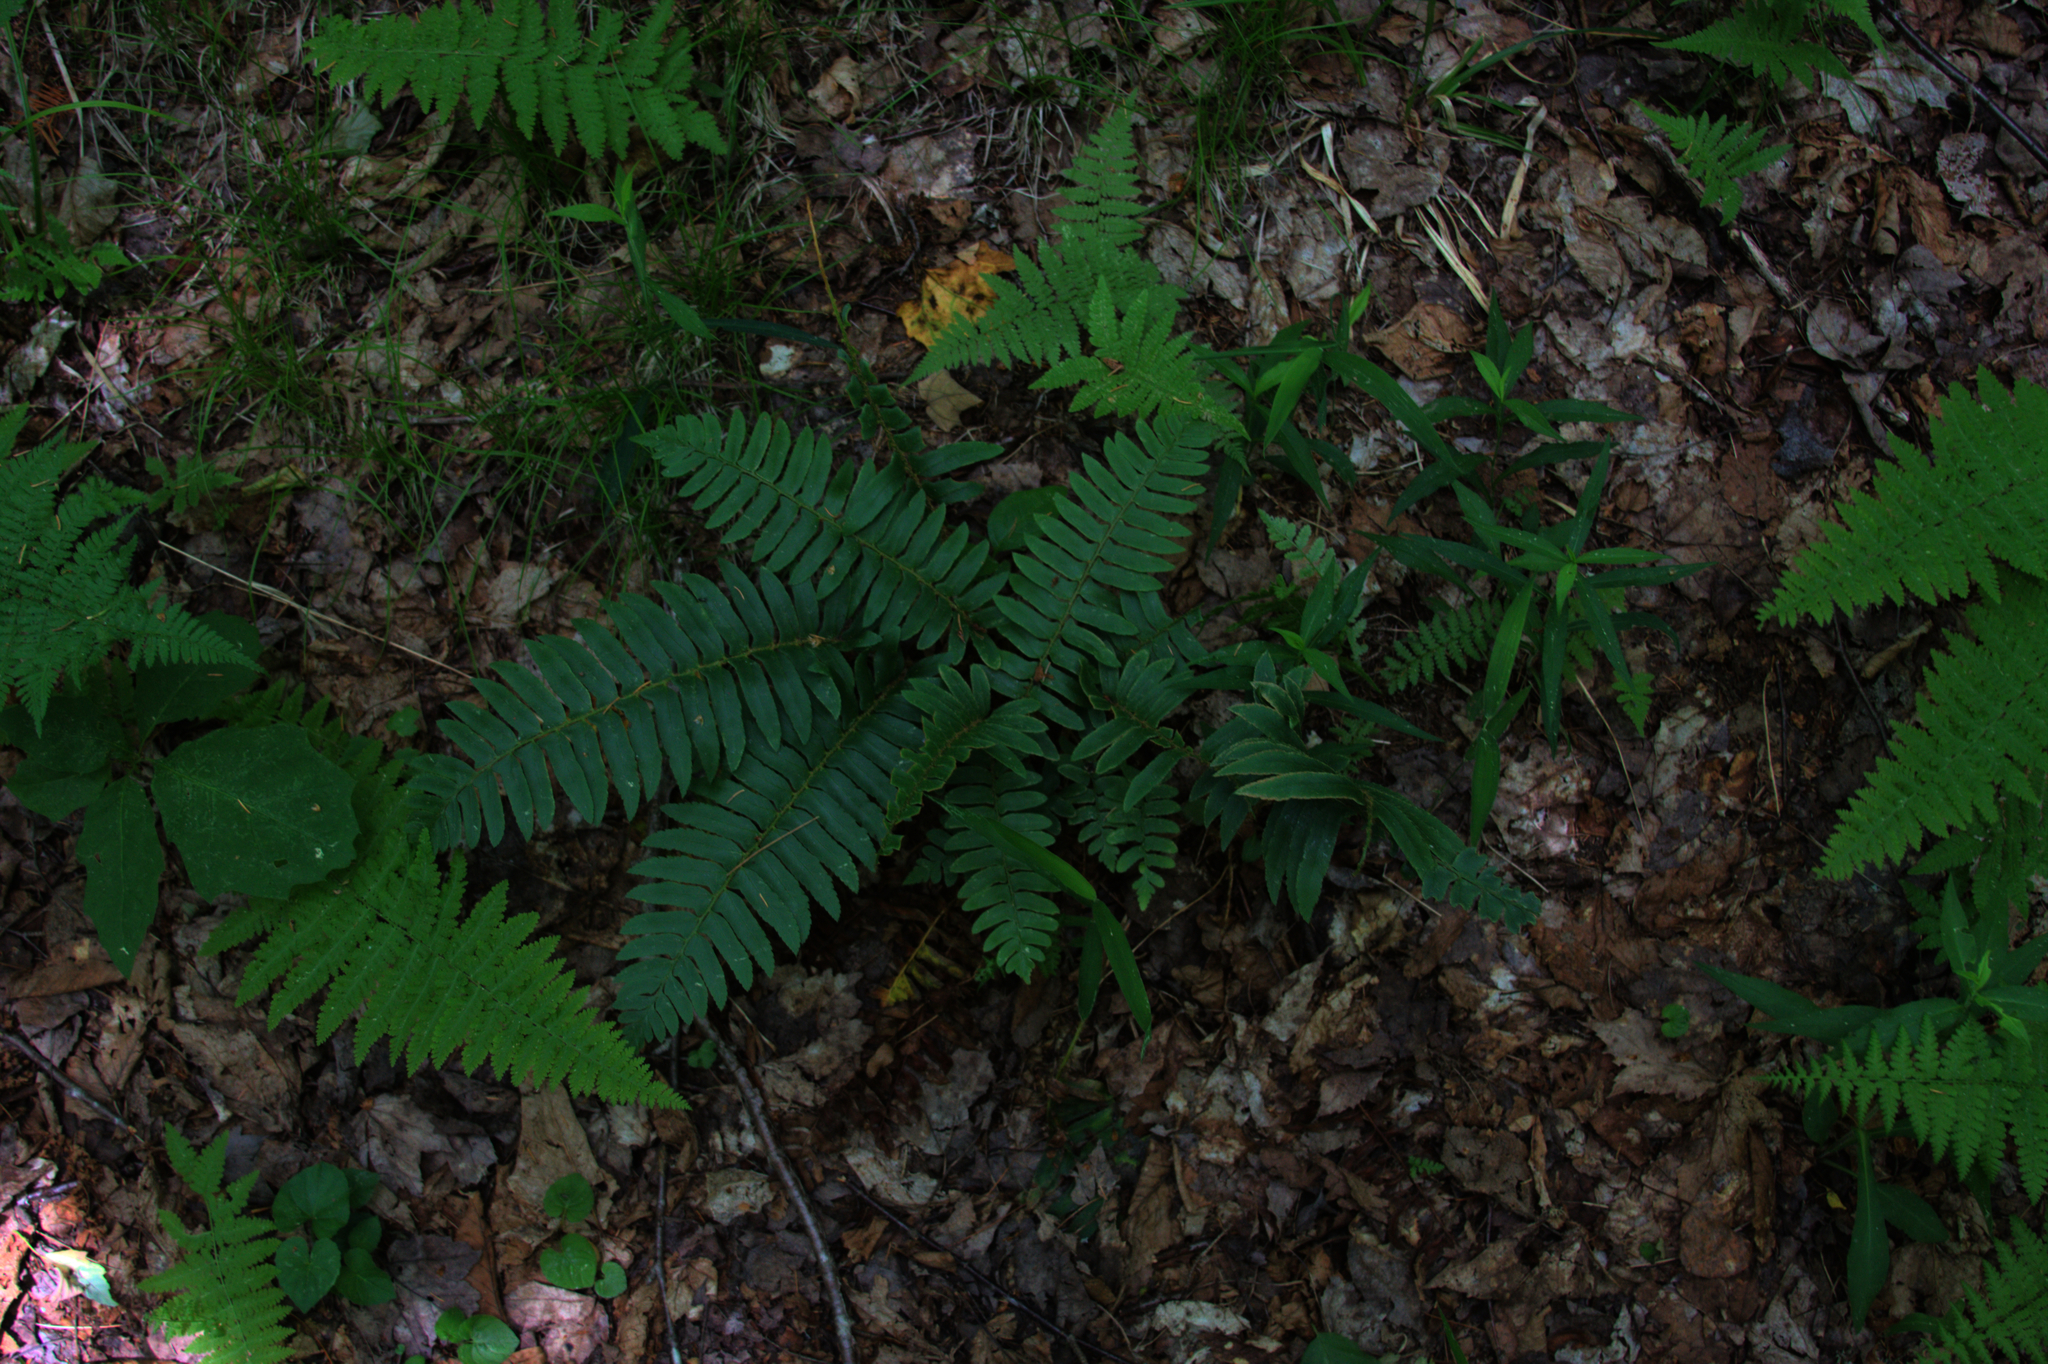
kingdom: Plantae
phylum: Tracheophyta
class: Polypodiopsida
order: Polypodiales
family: Dryopteridaceae
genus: Polystichum
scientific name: Polystichum acrostichoides
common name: Christmas fern
